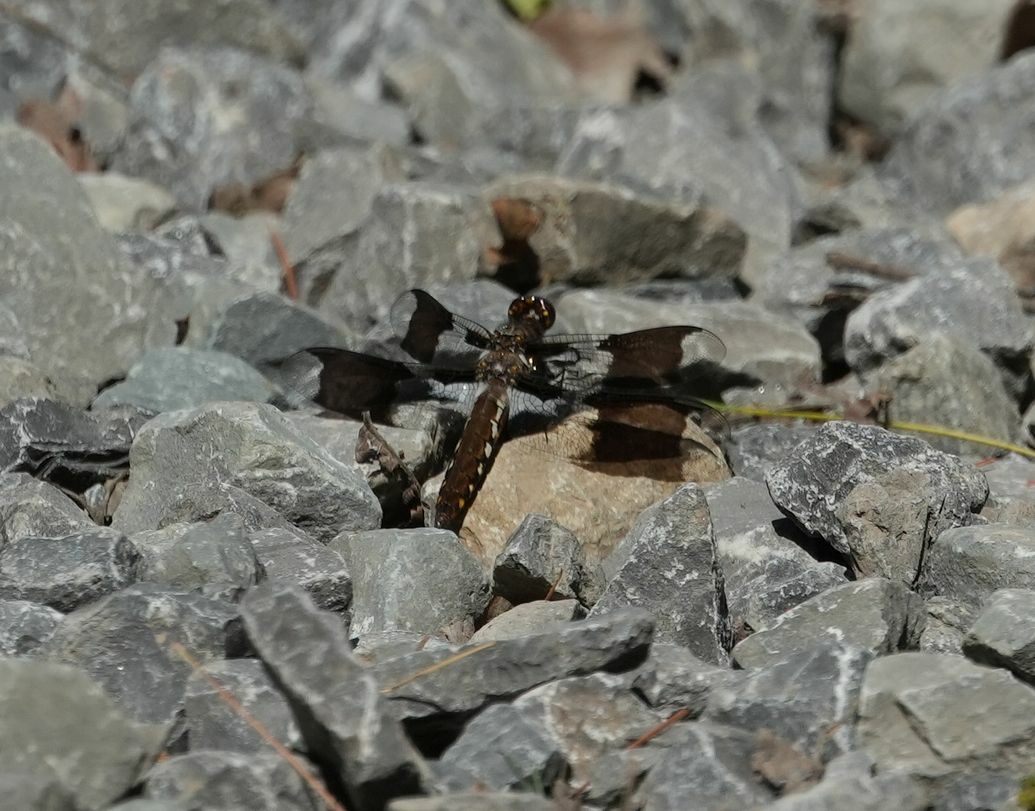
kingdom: Animalia
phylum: Arthropoda
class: Insecta
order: Odonata
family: Libellulidae
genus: Plathemis
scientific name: Plathemis lydia
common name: Common whitetail
